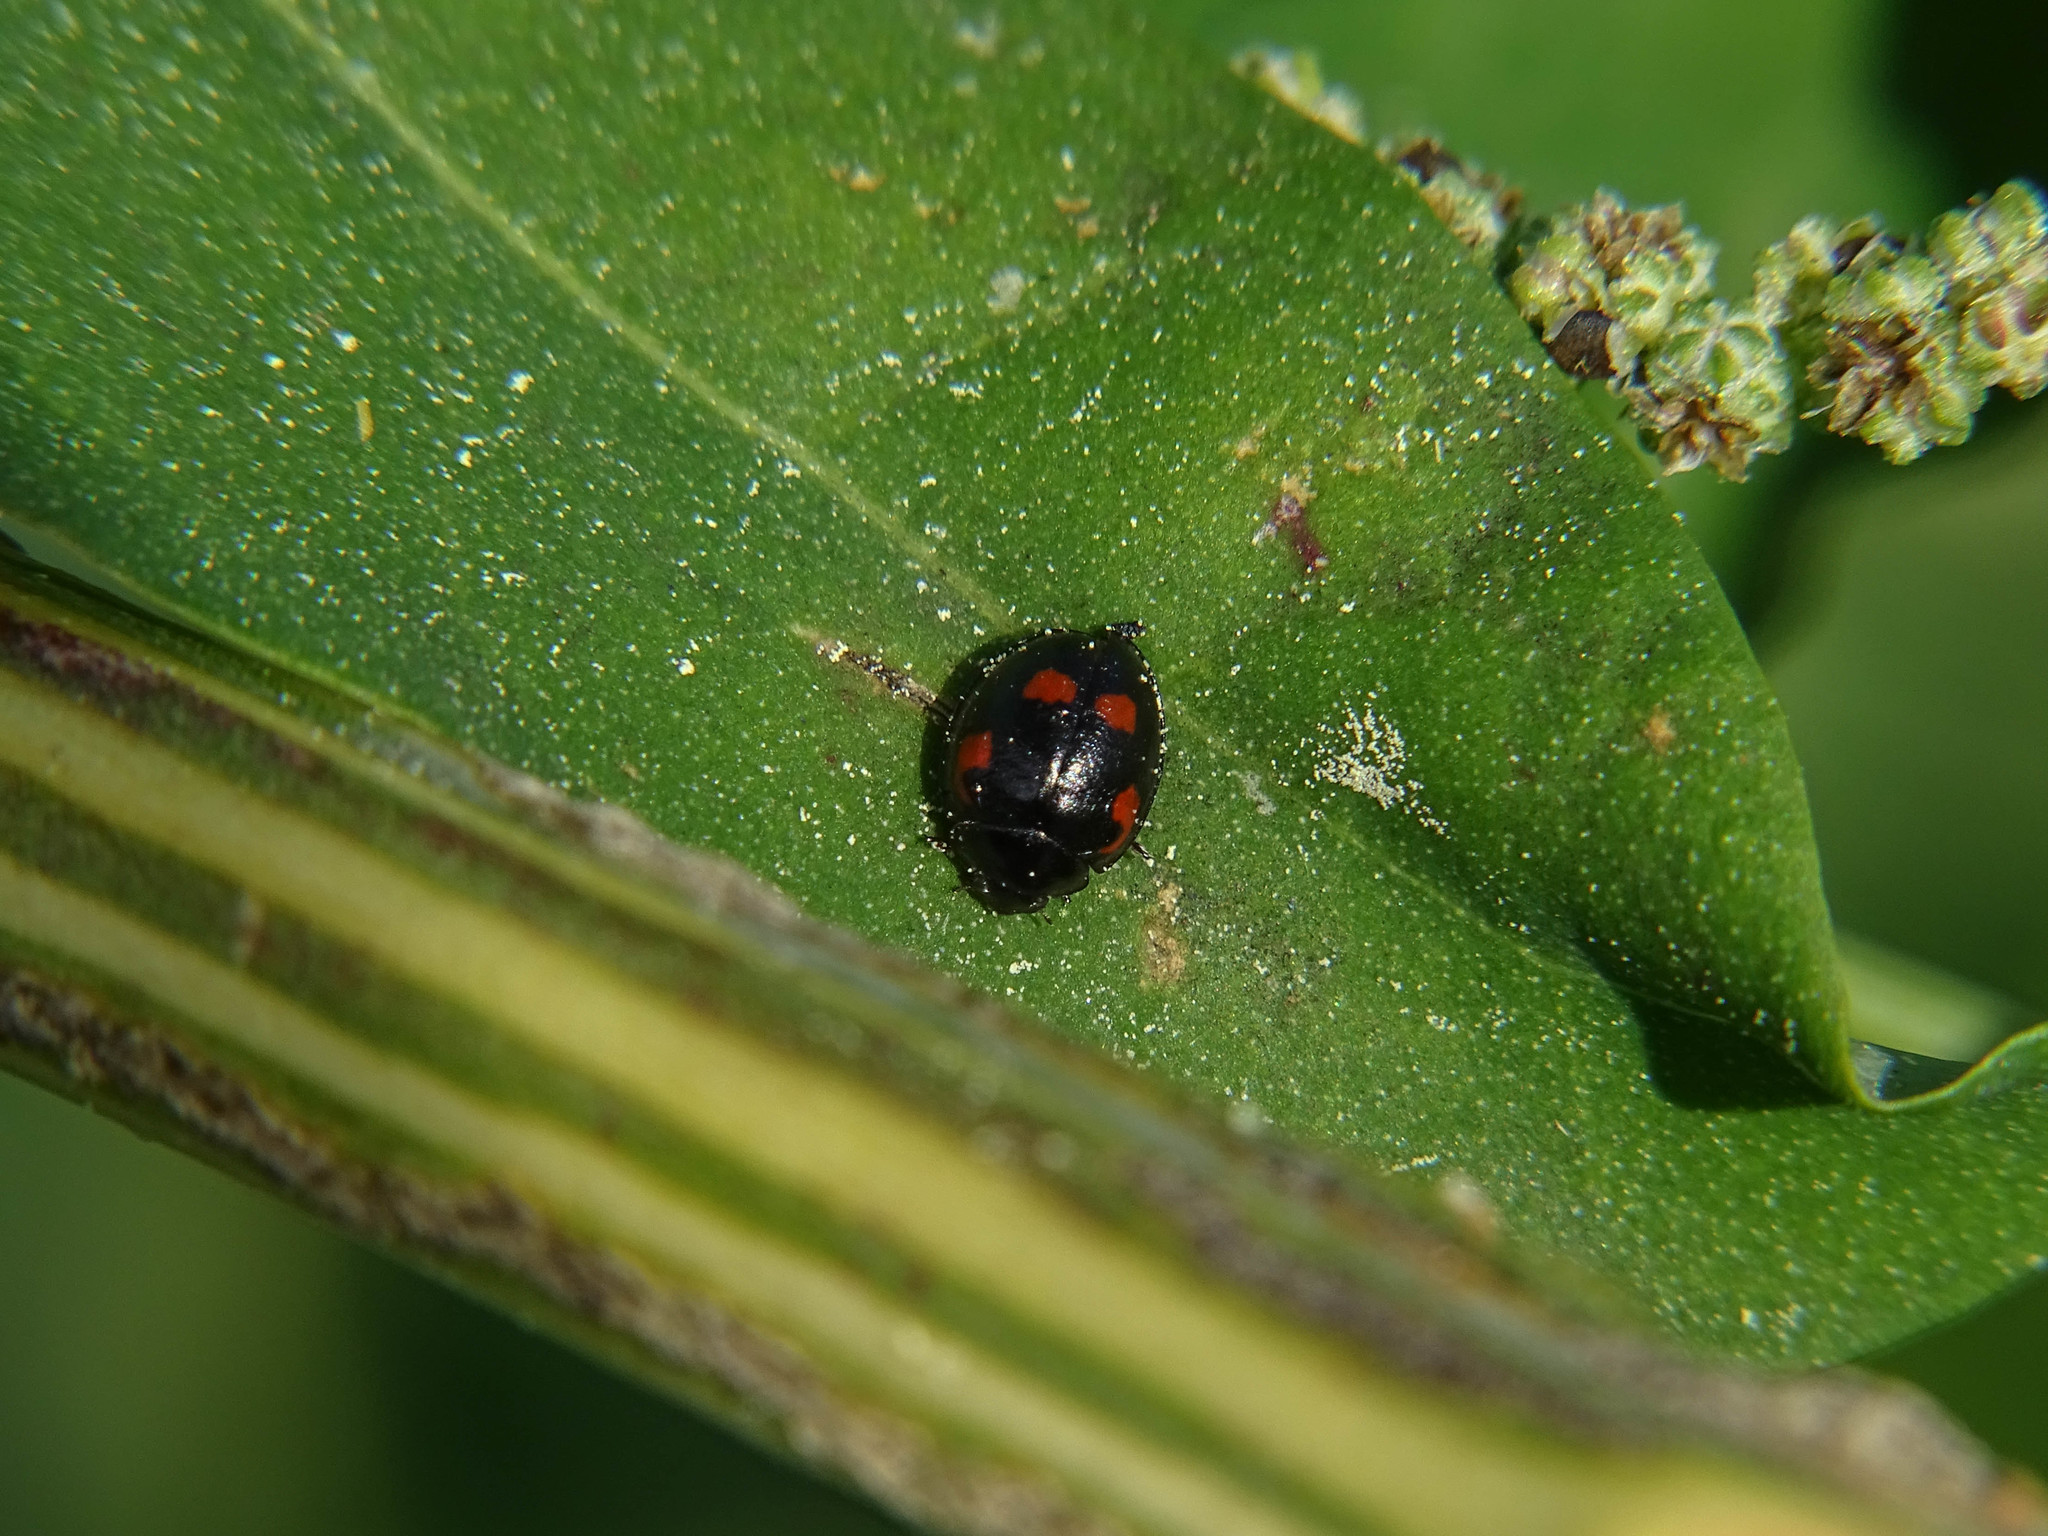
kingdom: Animalia
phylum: Arthropoda
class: Insecta
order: Coleoptera
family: Coccinellidae
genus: Brumus
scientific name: Brumus quadripustulatus
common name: Ladybird beetle
